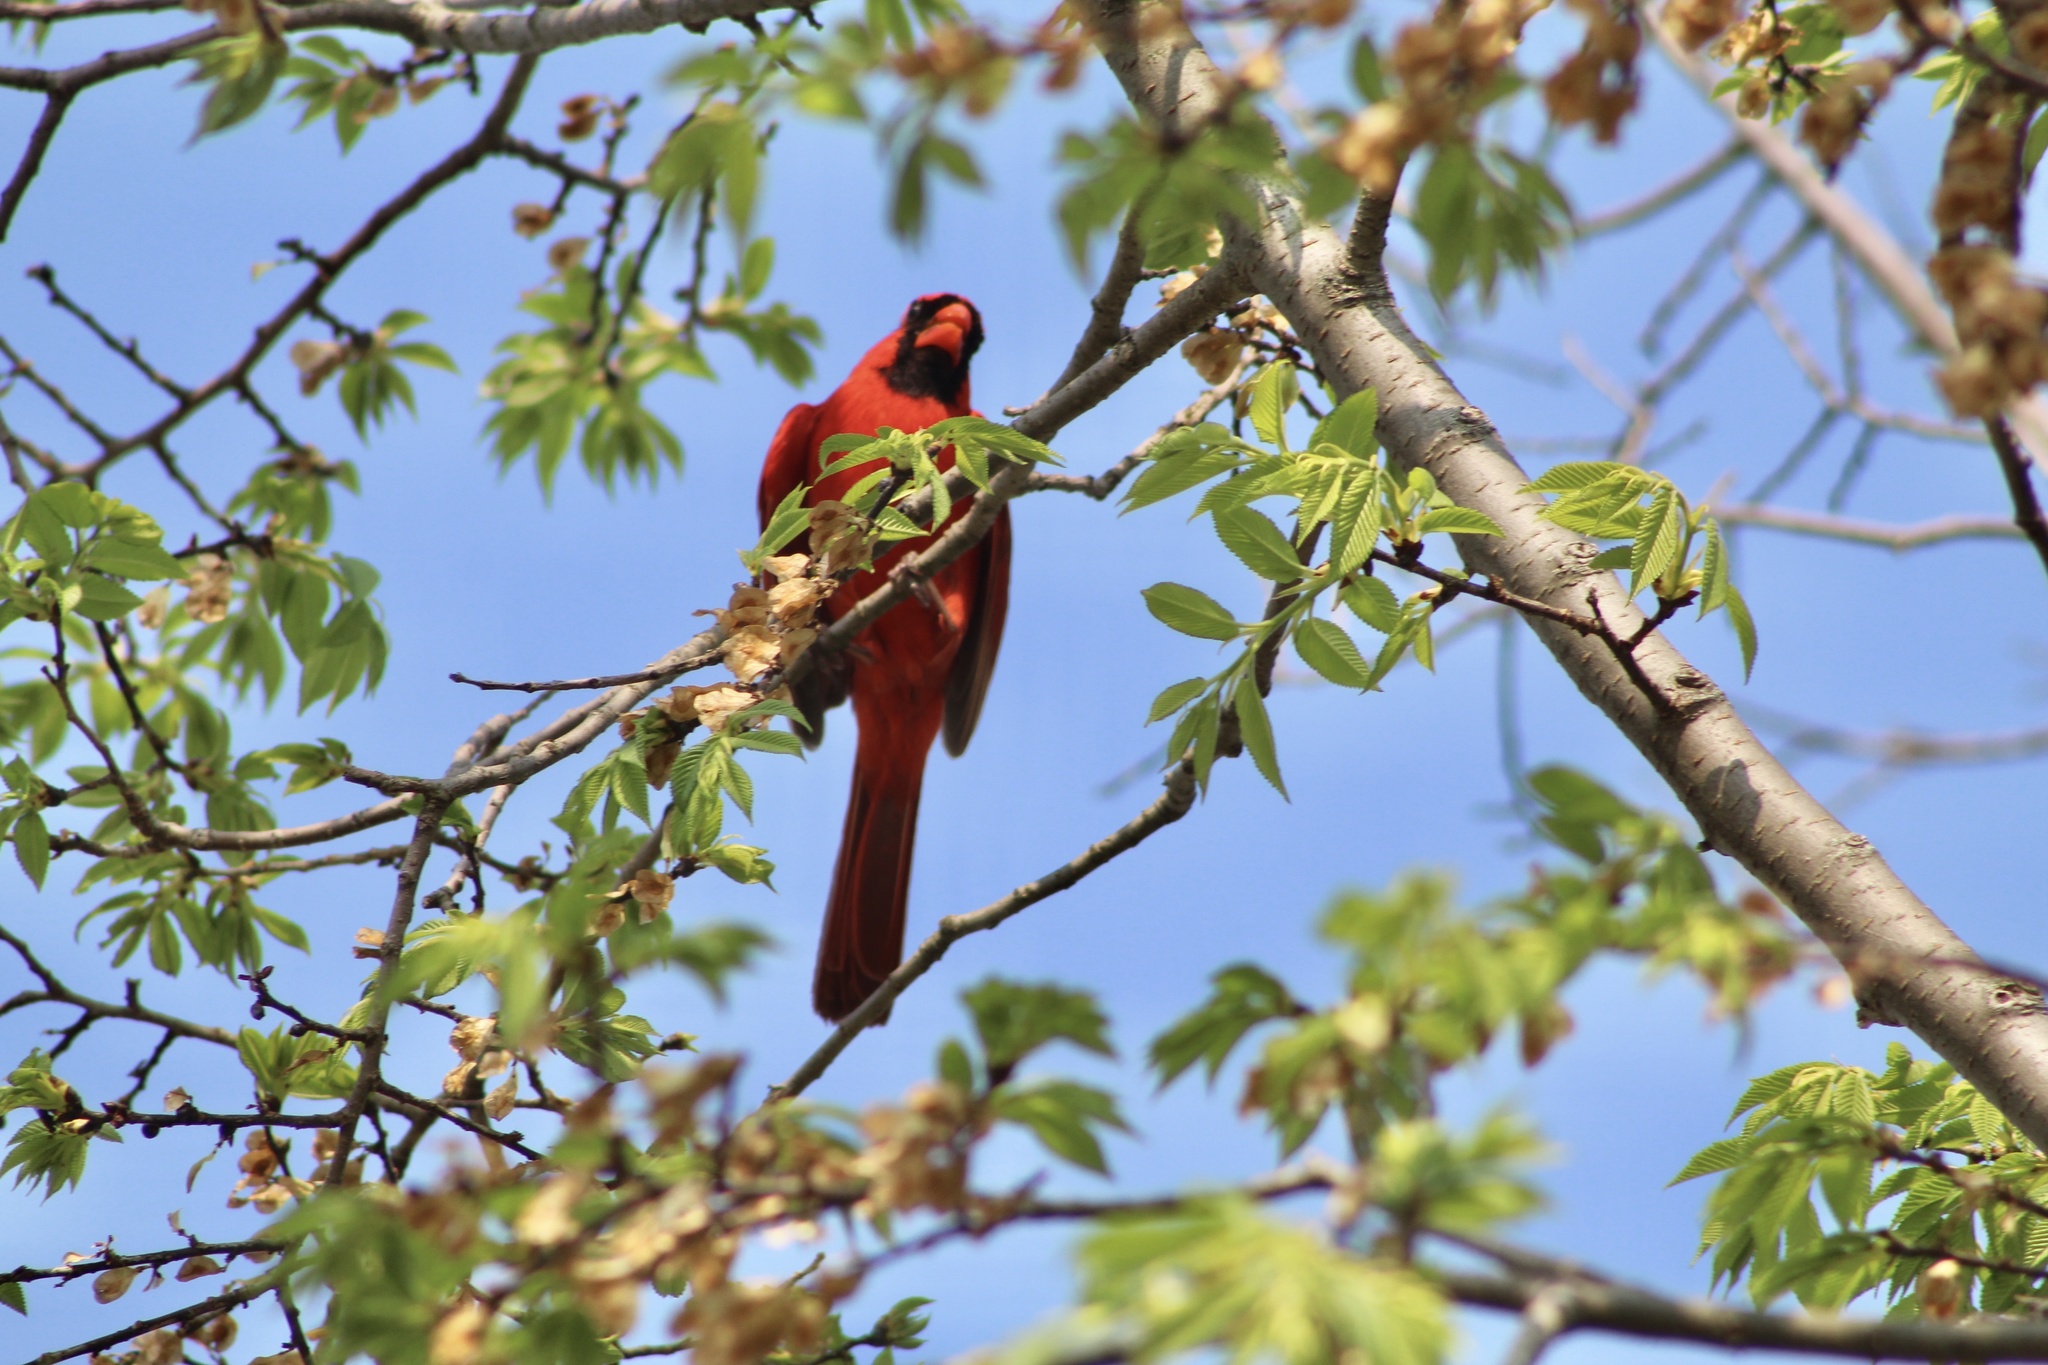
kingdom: Animalia
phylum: Chordata
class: Aves
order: Passeriformes
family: Cardinalidae
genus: Cardinalis
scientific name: Cardinalis cardinalis
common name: Northern cardinal
